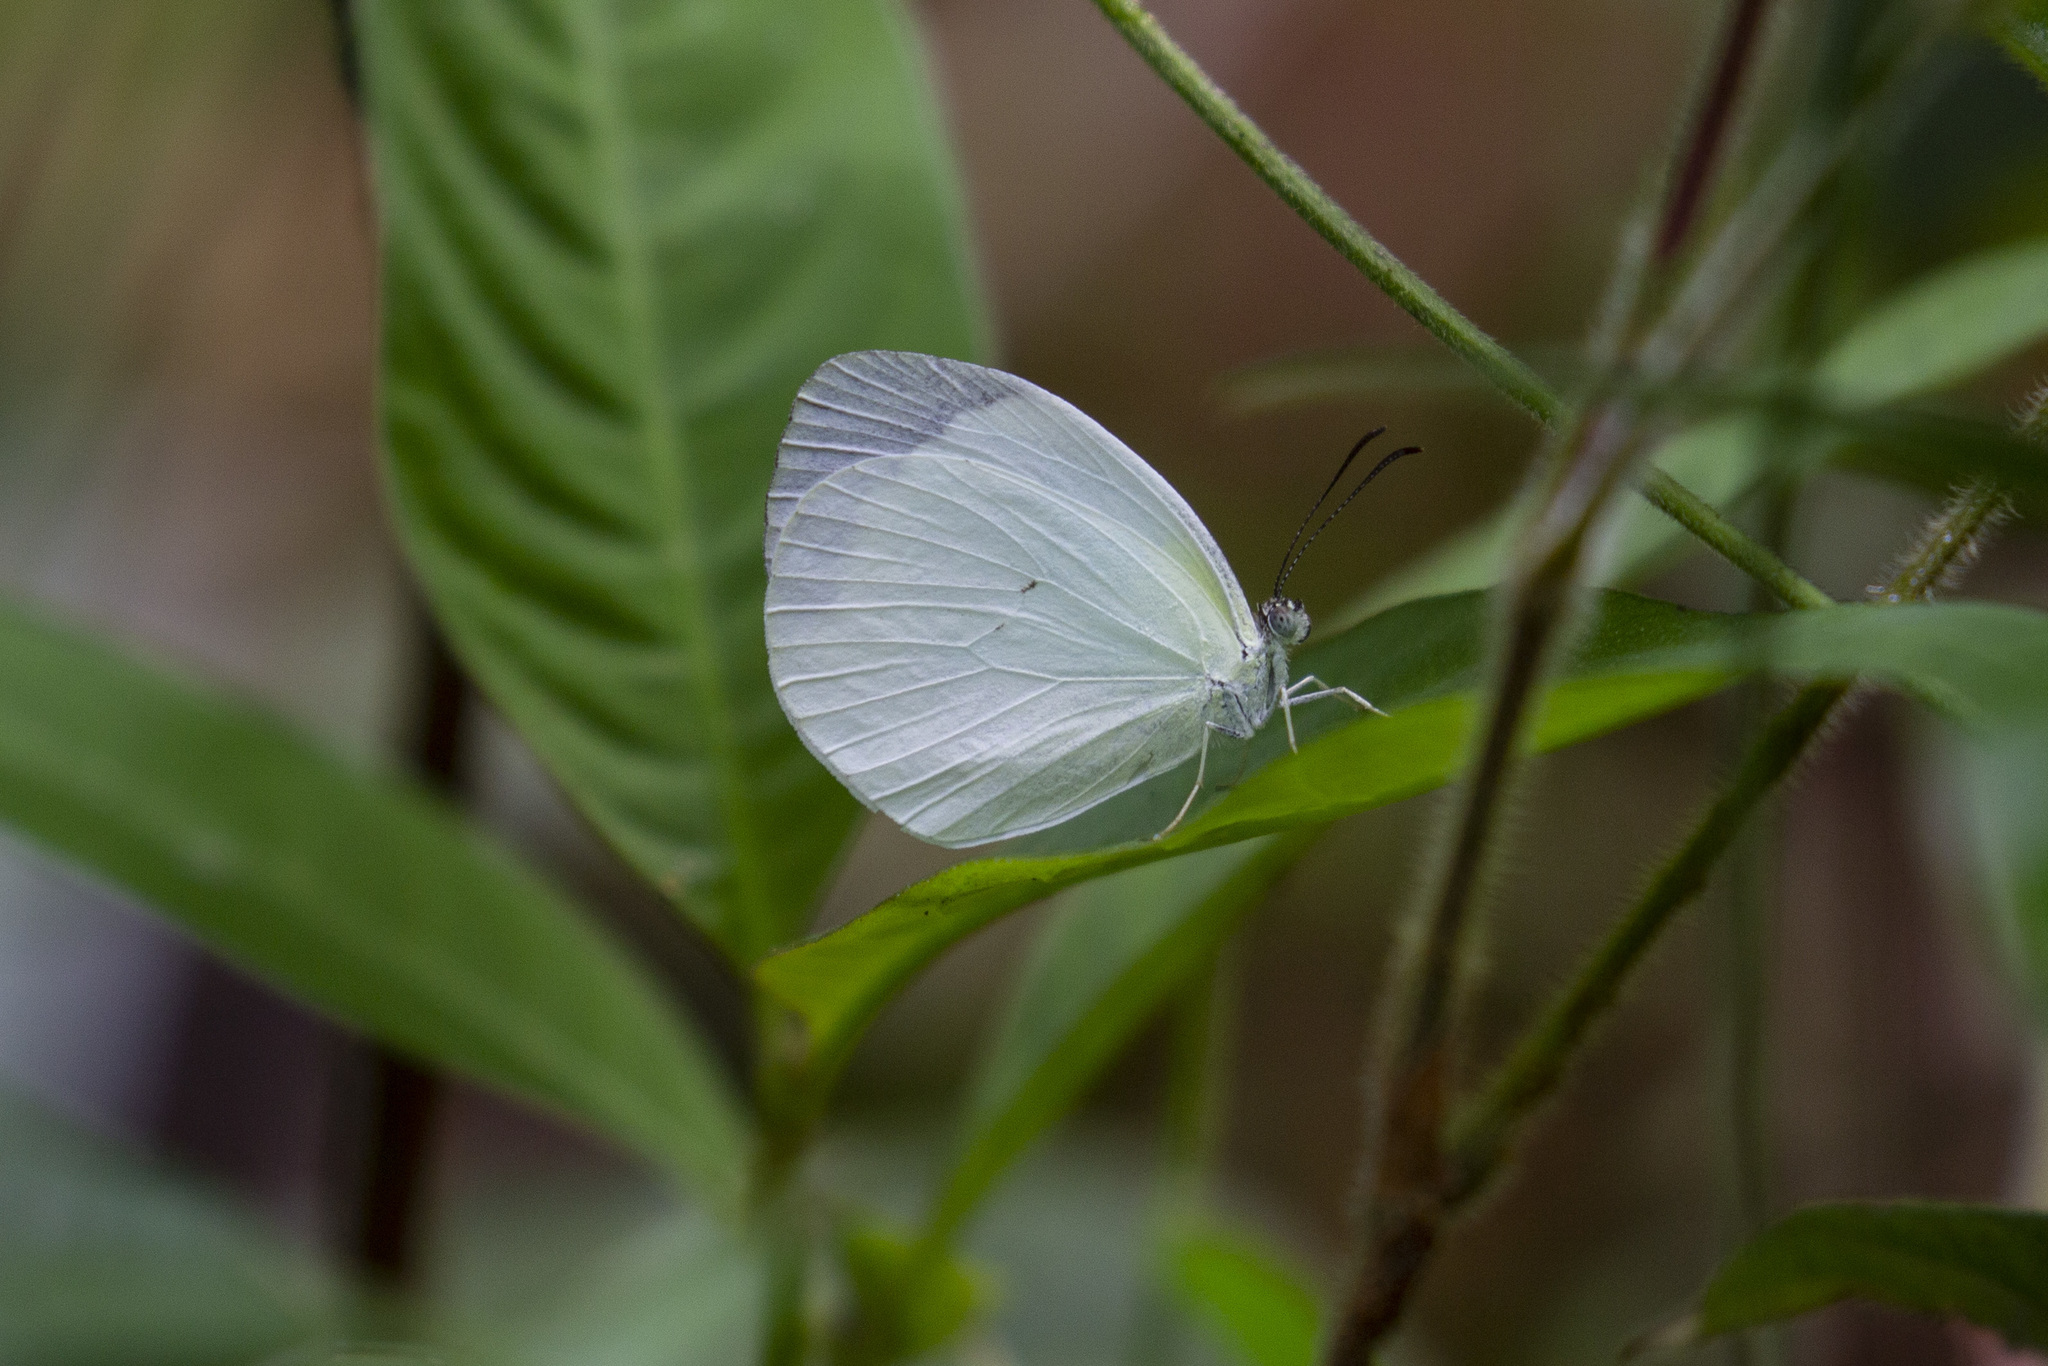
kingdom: Animalia
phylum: Arthropoda
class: Insecta
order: Lepidoptera
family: Pieridae
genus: Abaeis
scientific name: Abaeis albula
